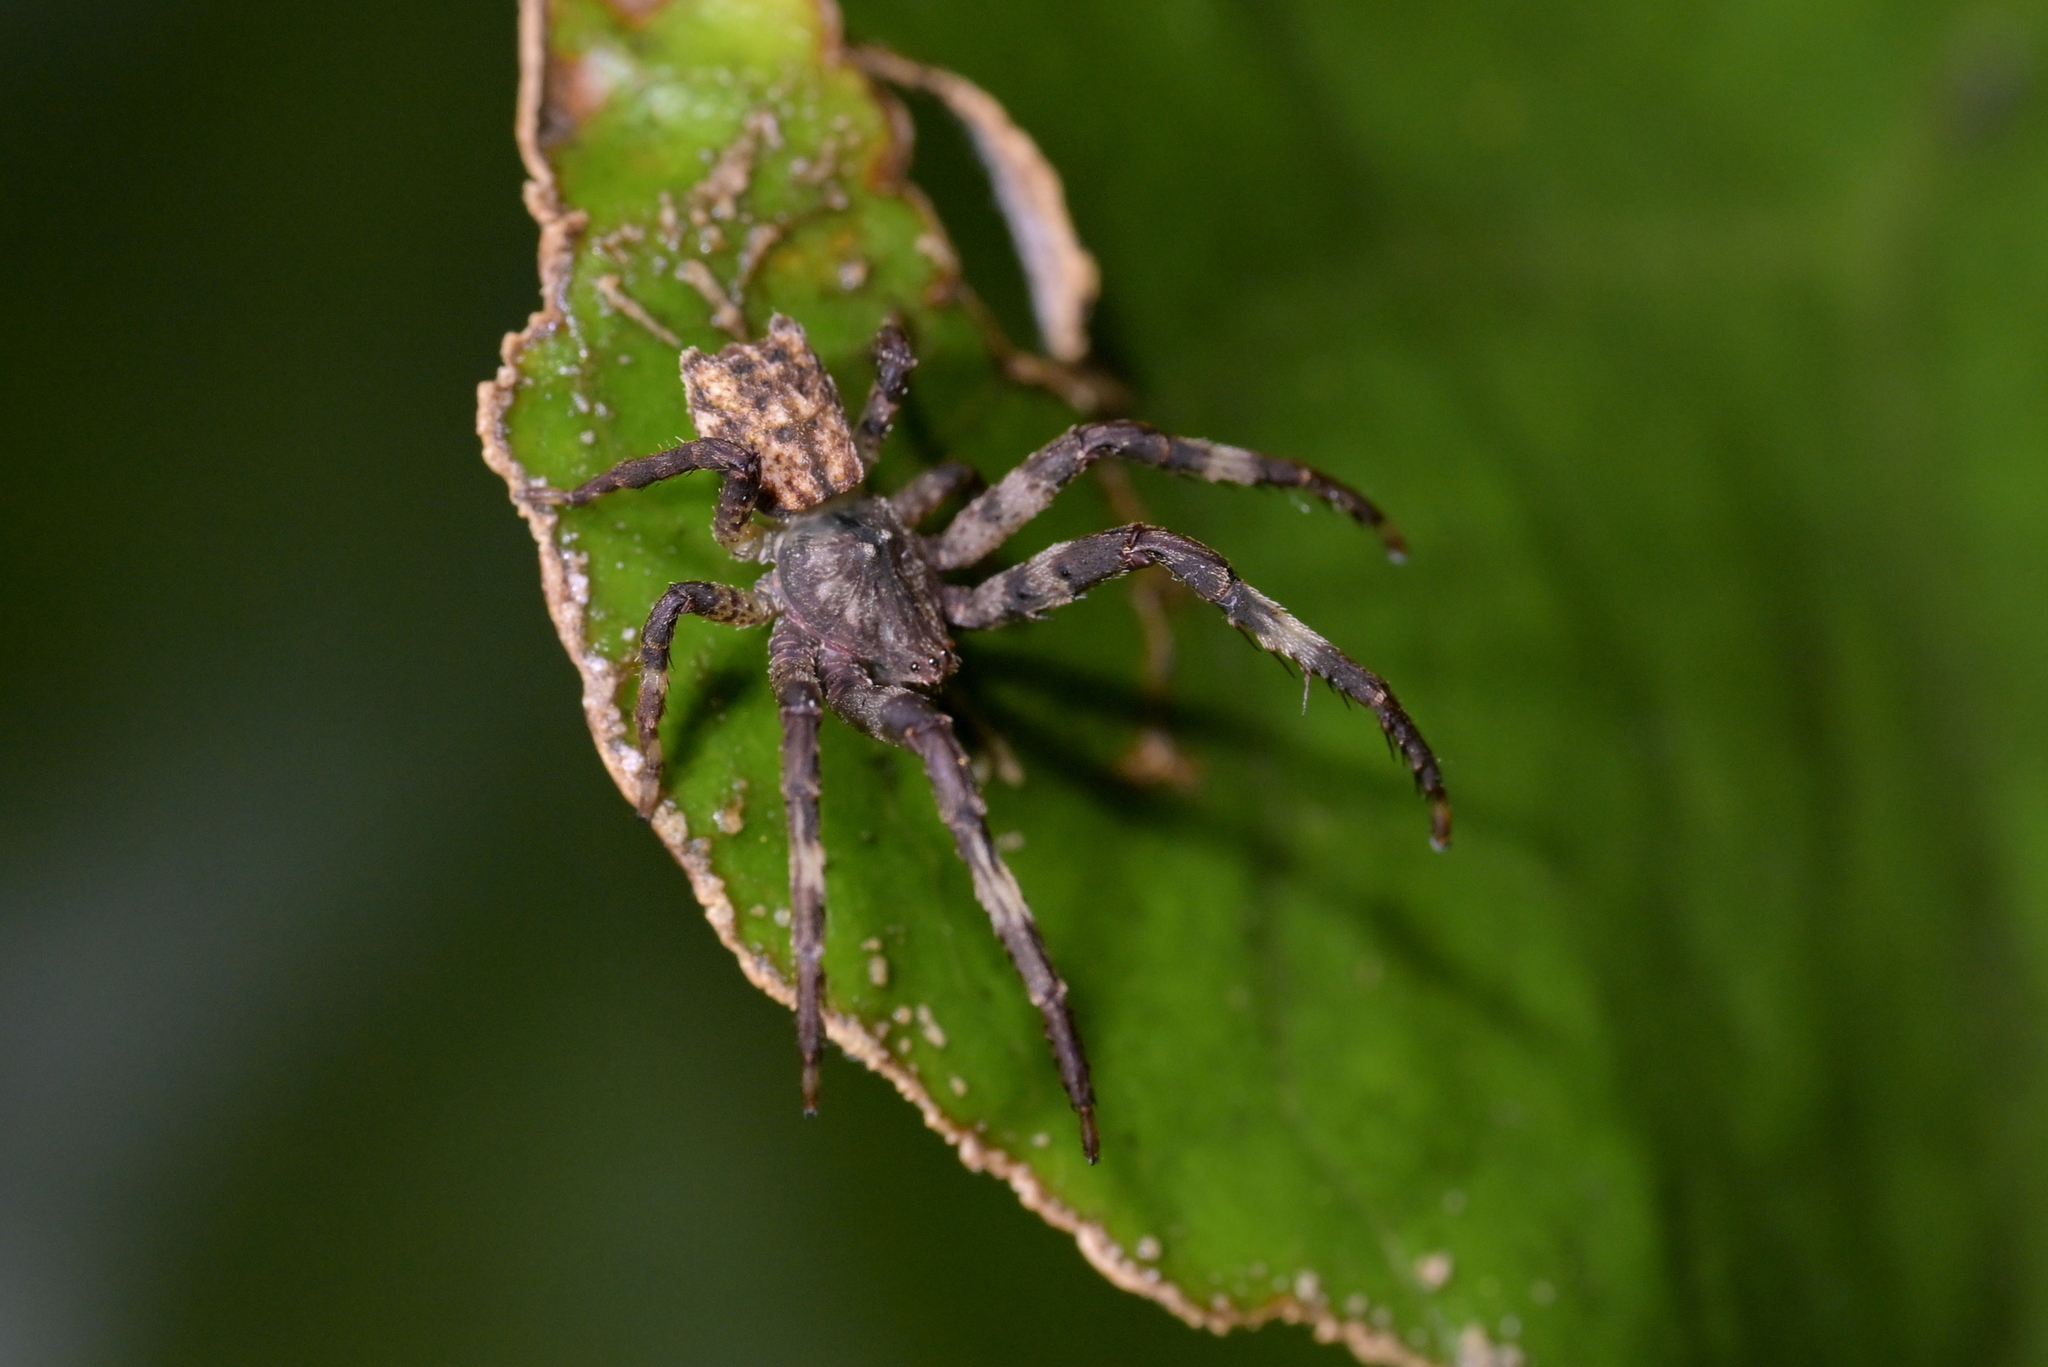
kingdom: Animalia
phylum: Arthropoda
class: Arachnida
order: Araneae
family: Thomisidae
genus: Sidymella
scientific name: Sidymella angularis
